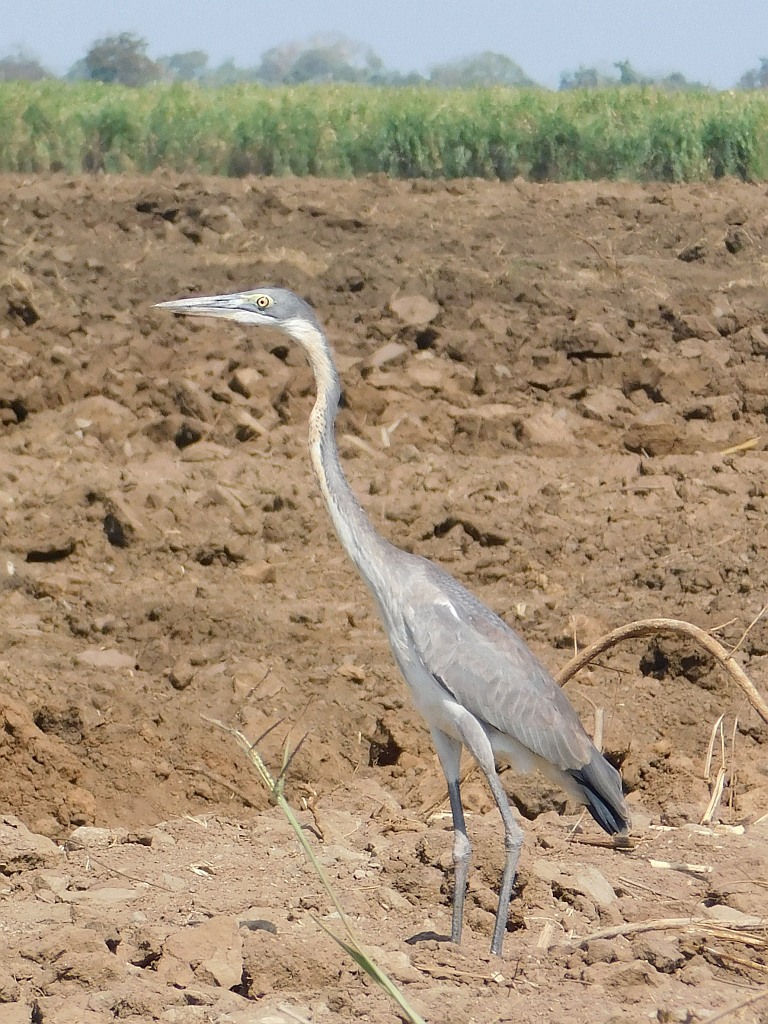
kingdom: Animalia
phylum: Chordata
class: Aves
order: Pelecaniformes
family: Ardeidae
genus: Ardea
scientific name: Ardea melanocephala
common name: Black-headed heron
